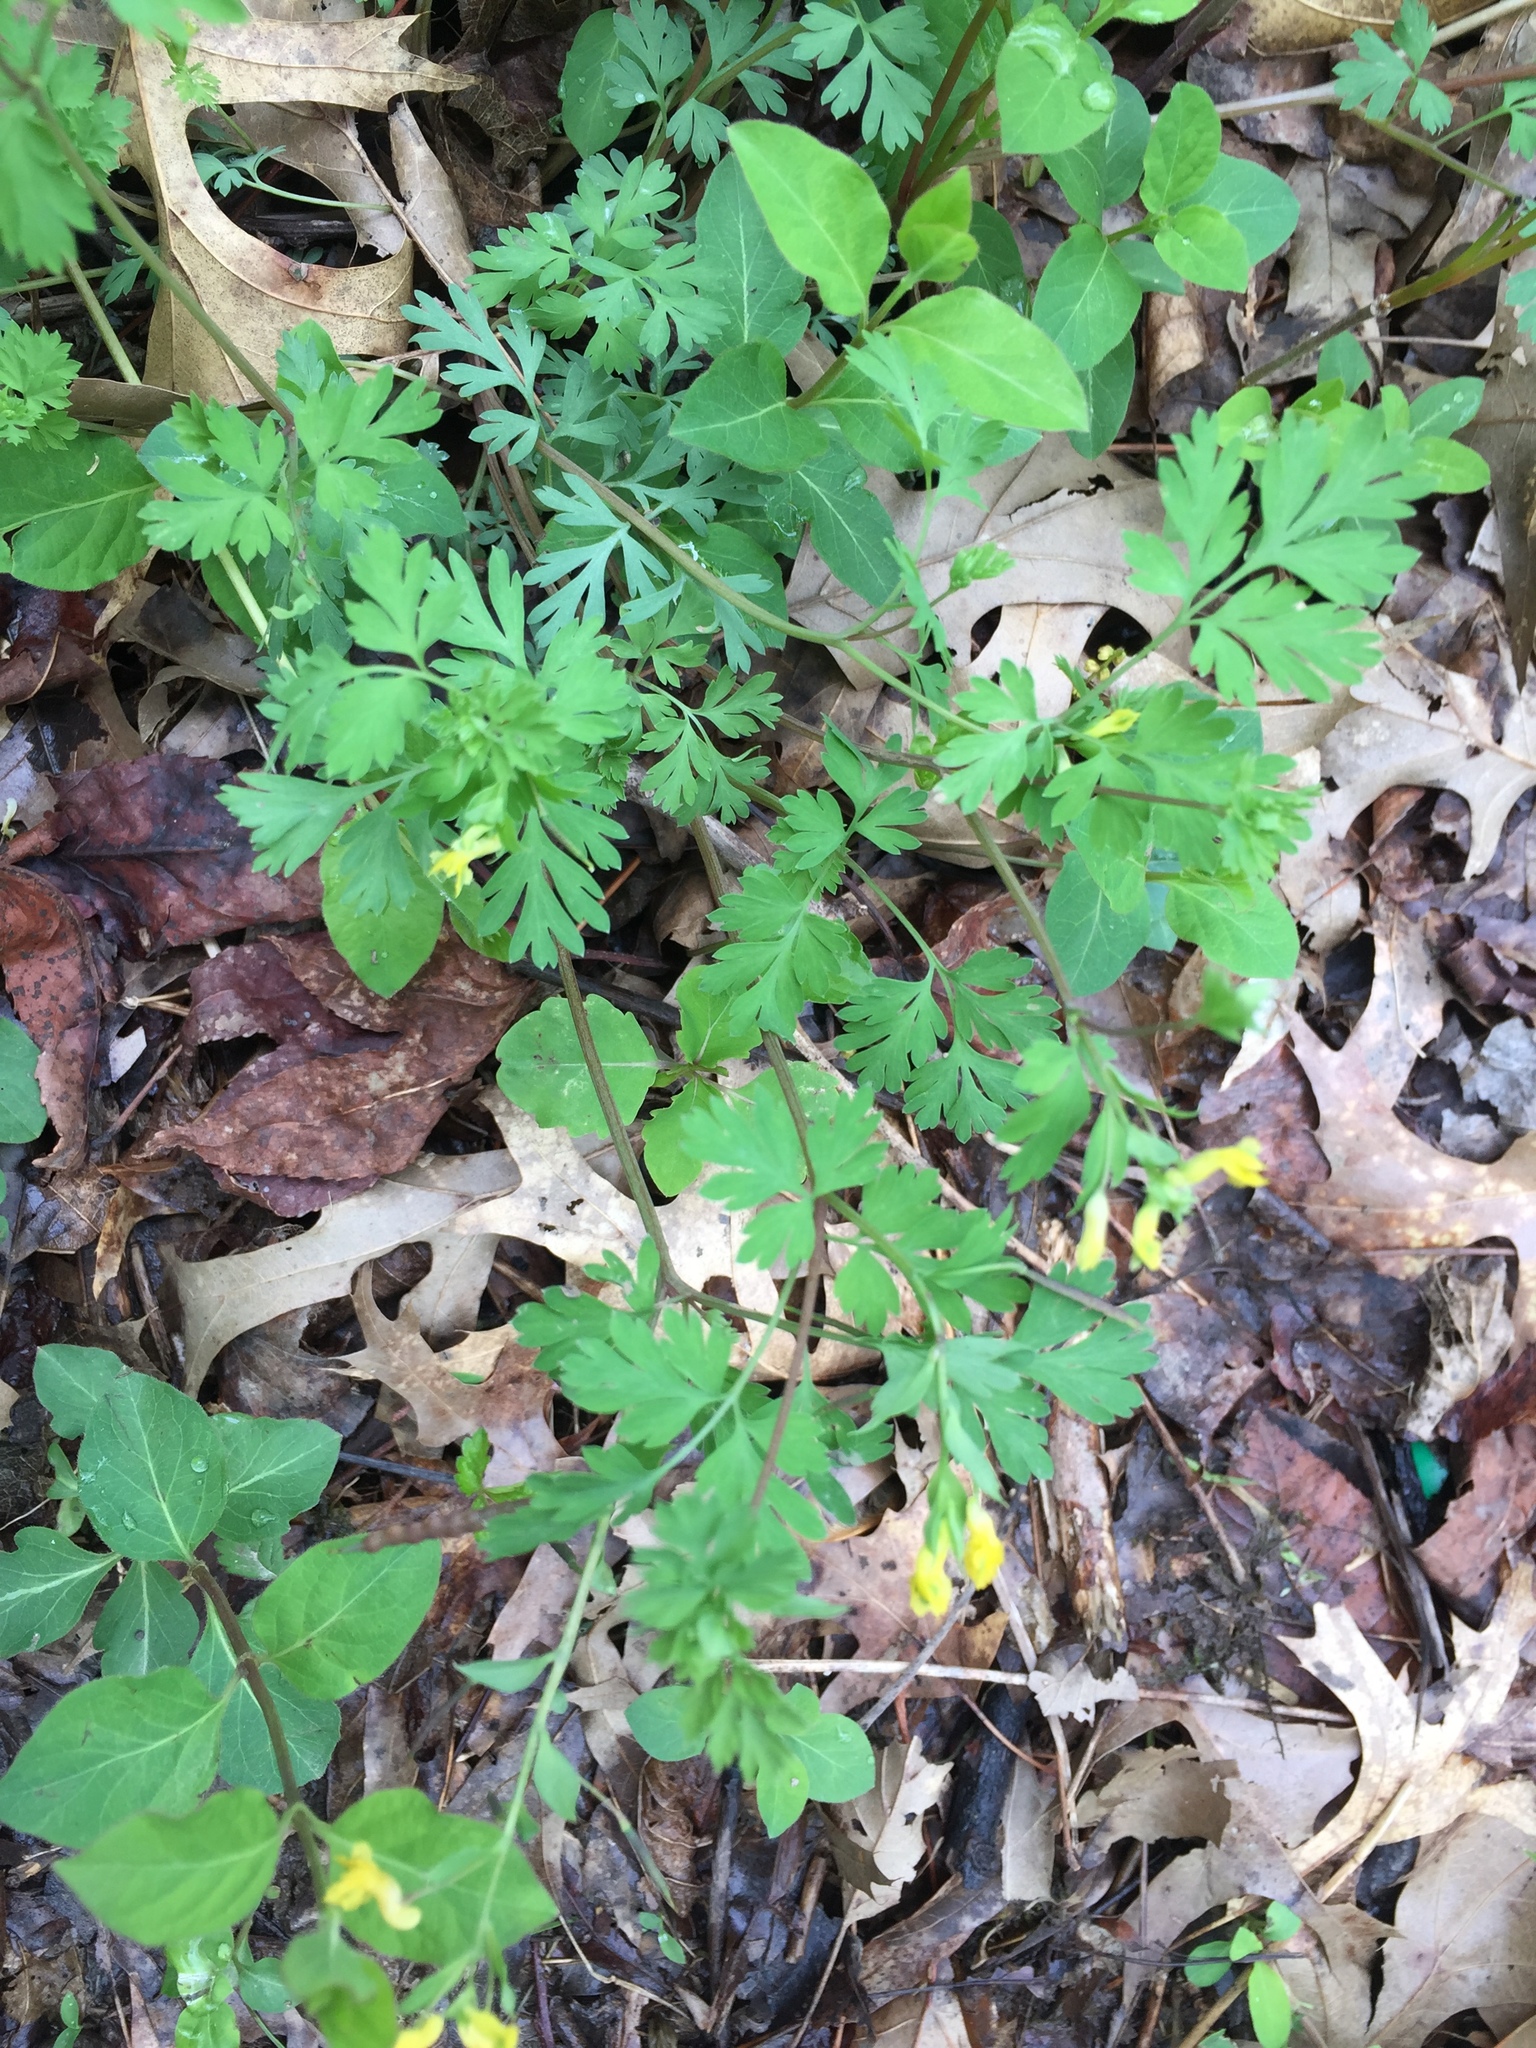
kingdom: Plantae
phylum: Tracheophyta
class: Magnoliopsida
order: Ranunculales
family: Papaveraceae
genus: Corydalis
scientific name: Corydalis flavula
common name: Yellow corydalis
